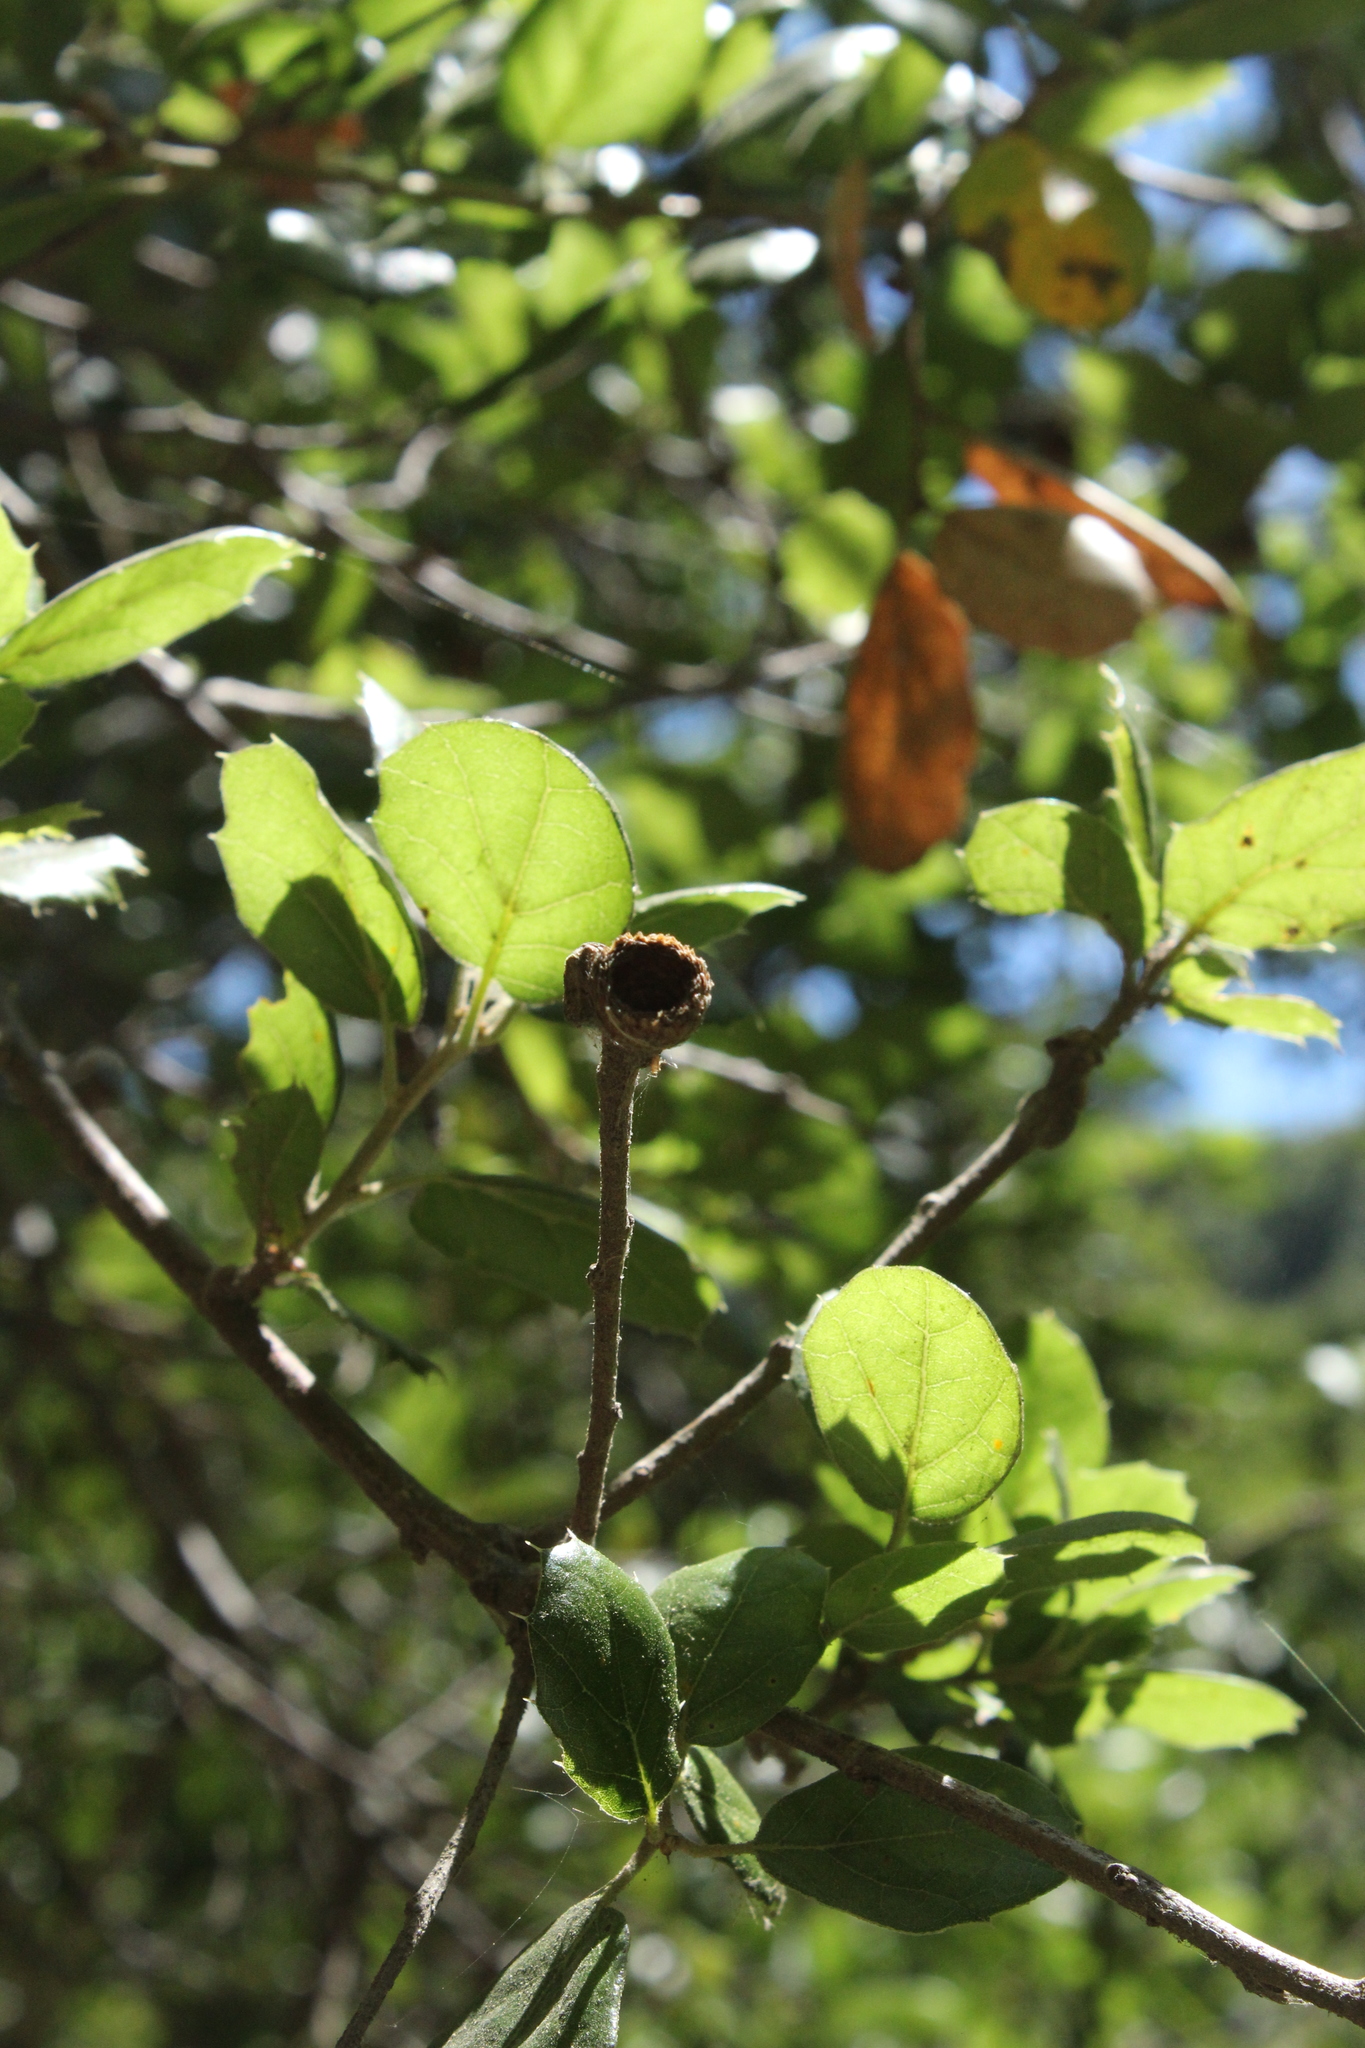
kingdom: Plantae
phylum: Tracheophyta
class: Magnoliopsida
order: Fagales
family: Fagaceae
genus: Quercus
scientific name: Quercus agrifolia
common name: California live oak
